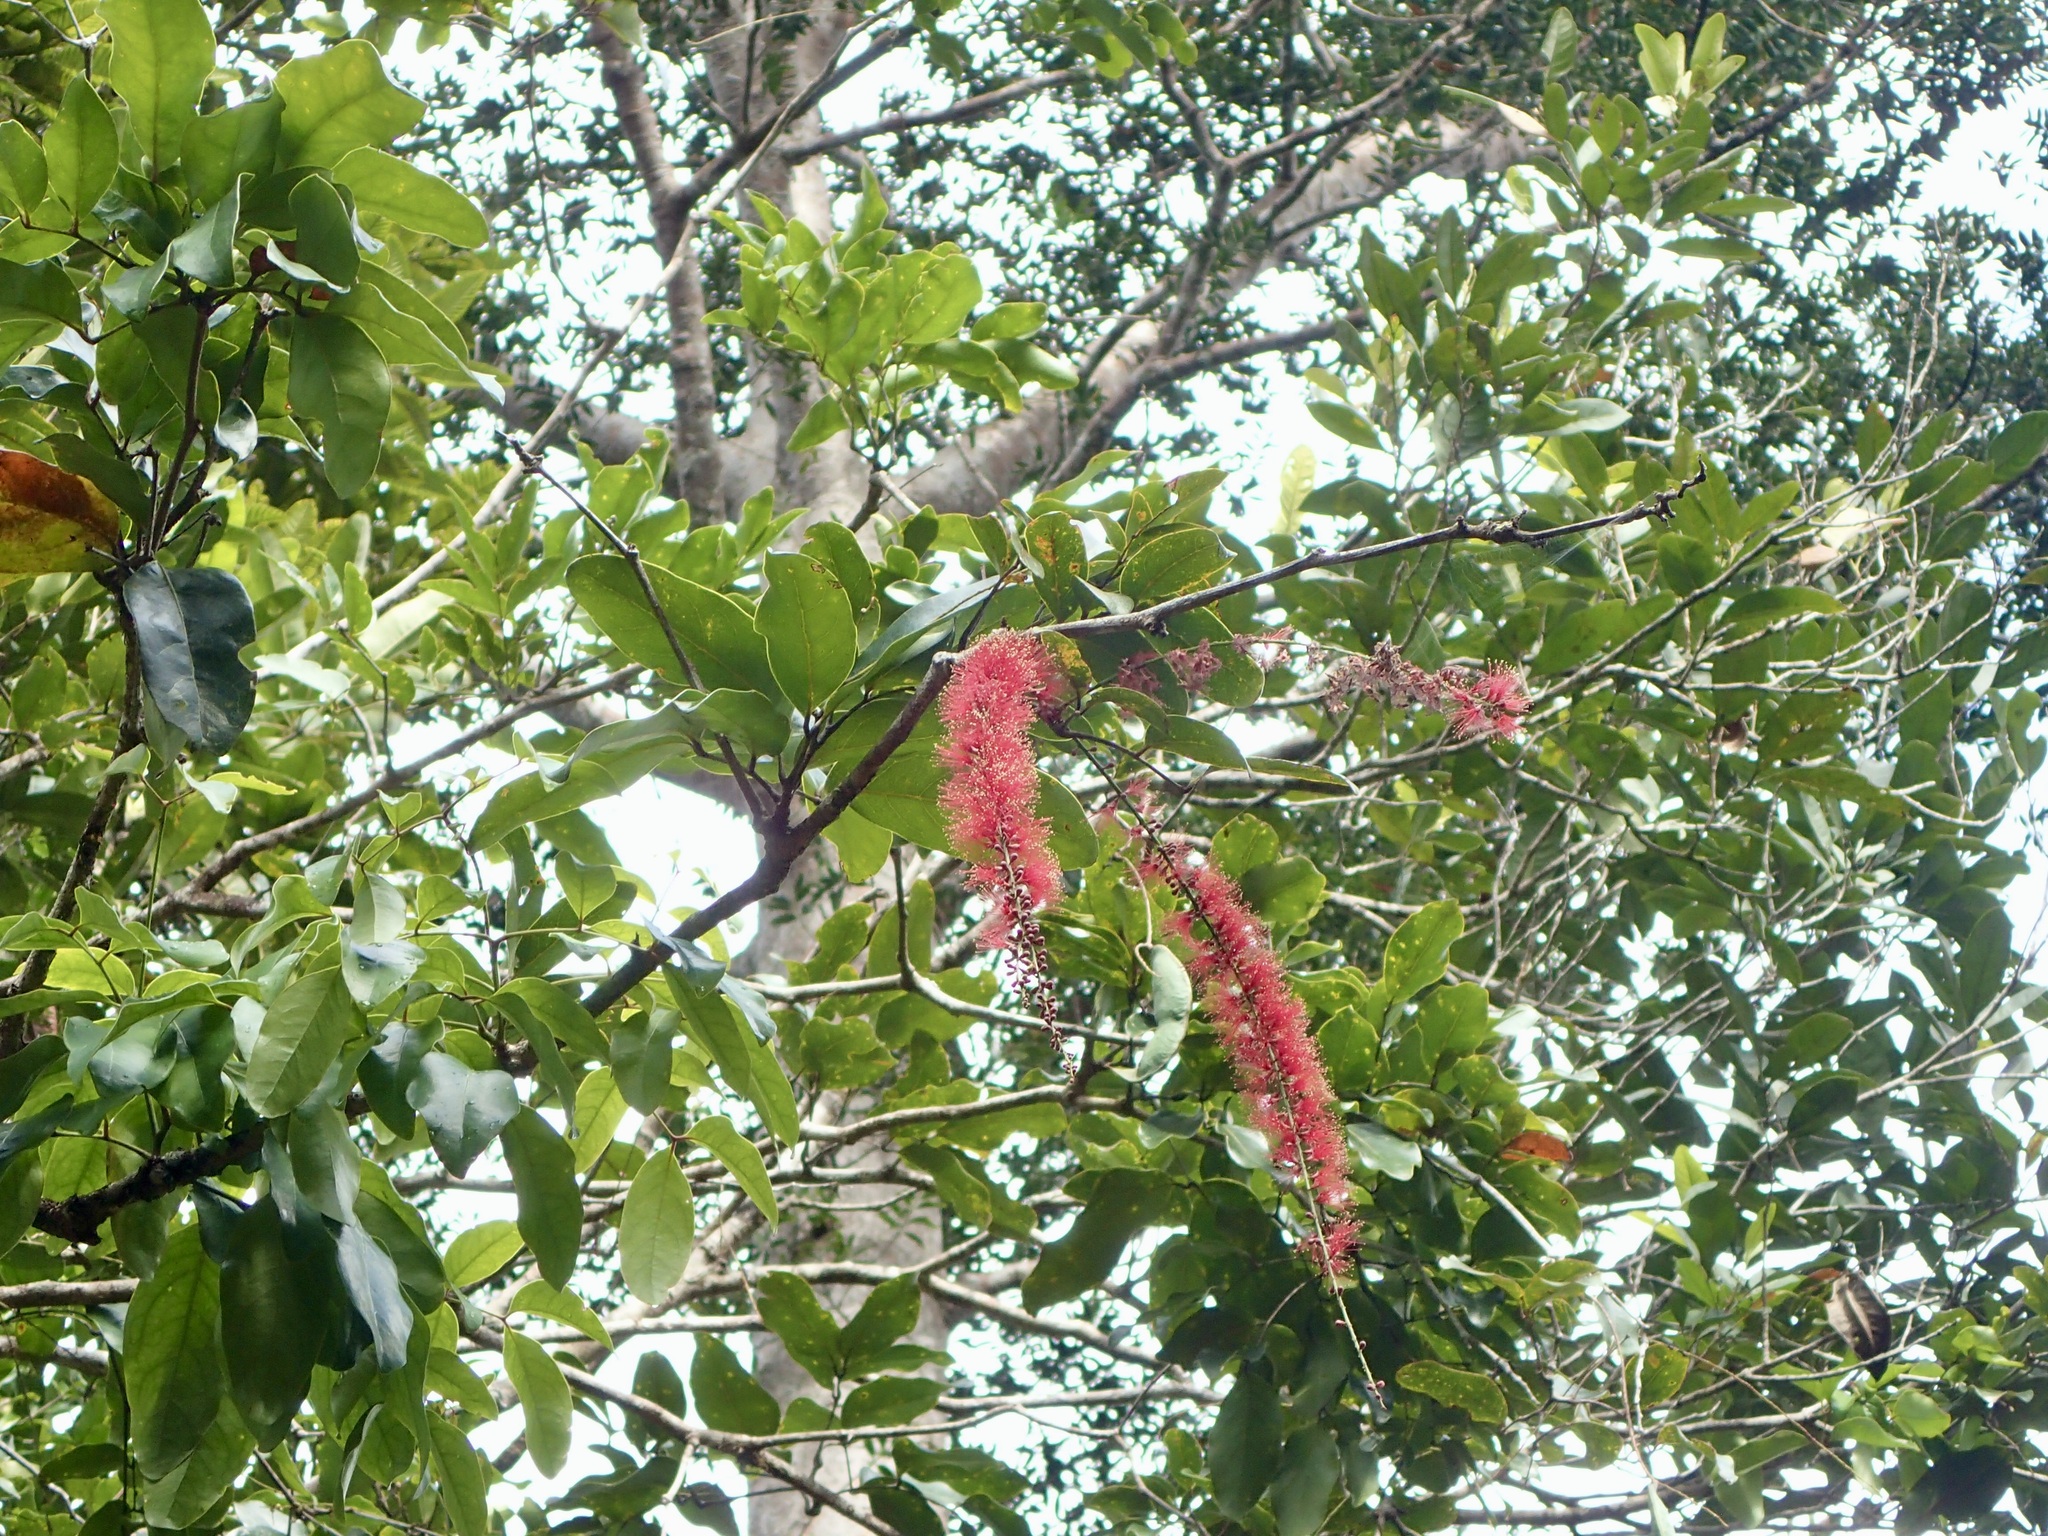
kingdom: Plantae
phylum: Tracheophyta
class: Magnoliopsida
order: Fabales
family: Fabaceae
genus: Archidendropsis
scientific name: Archidendropsis paivana
